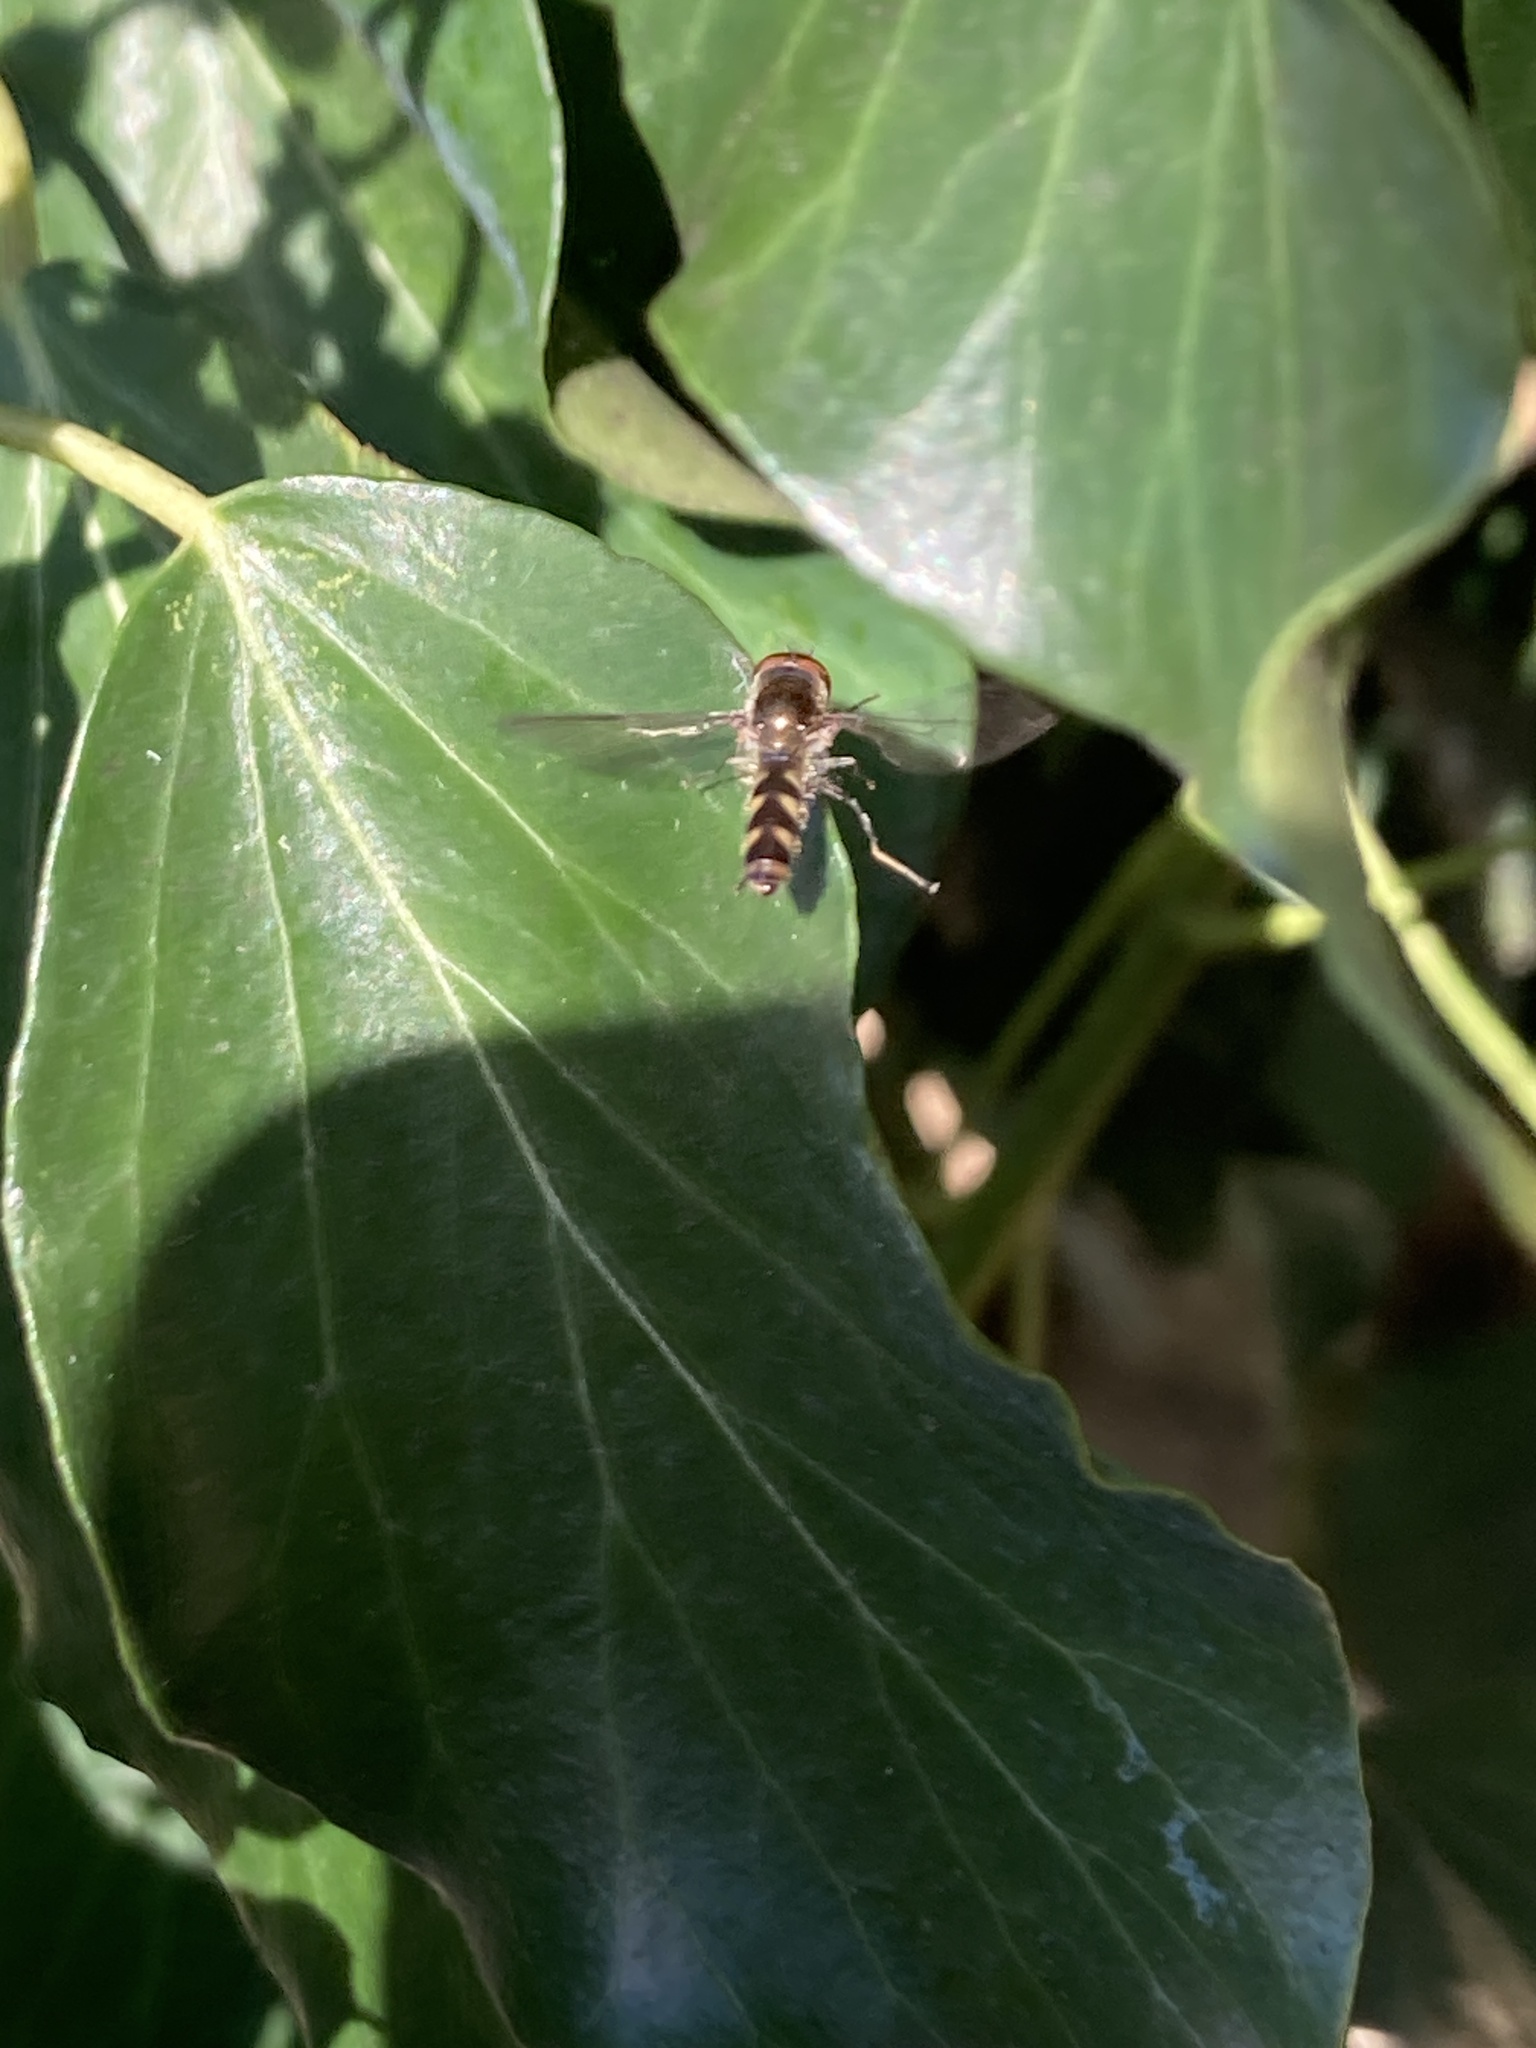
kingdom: Animalia
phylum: Arthropoda
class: Insecta
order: Diptera
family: Syrphidae
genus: Meliscaeva
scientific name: Meliscaeva auricollis
